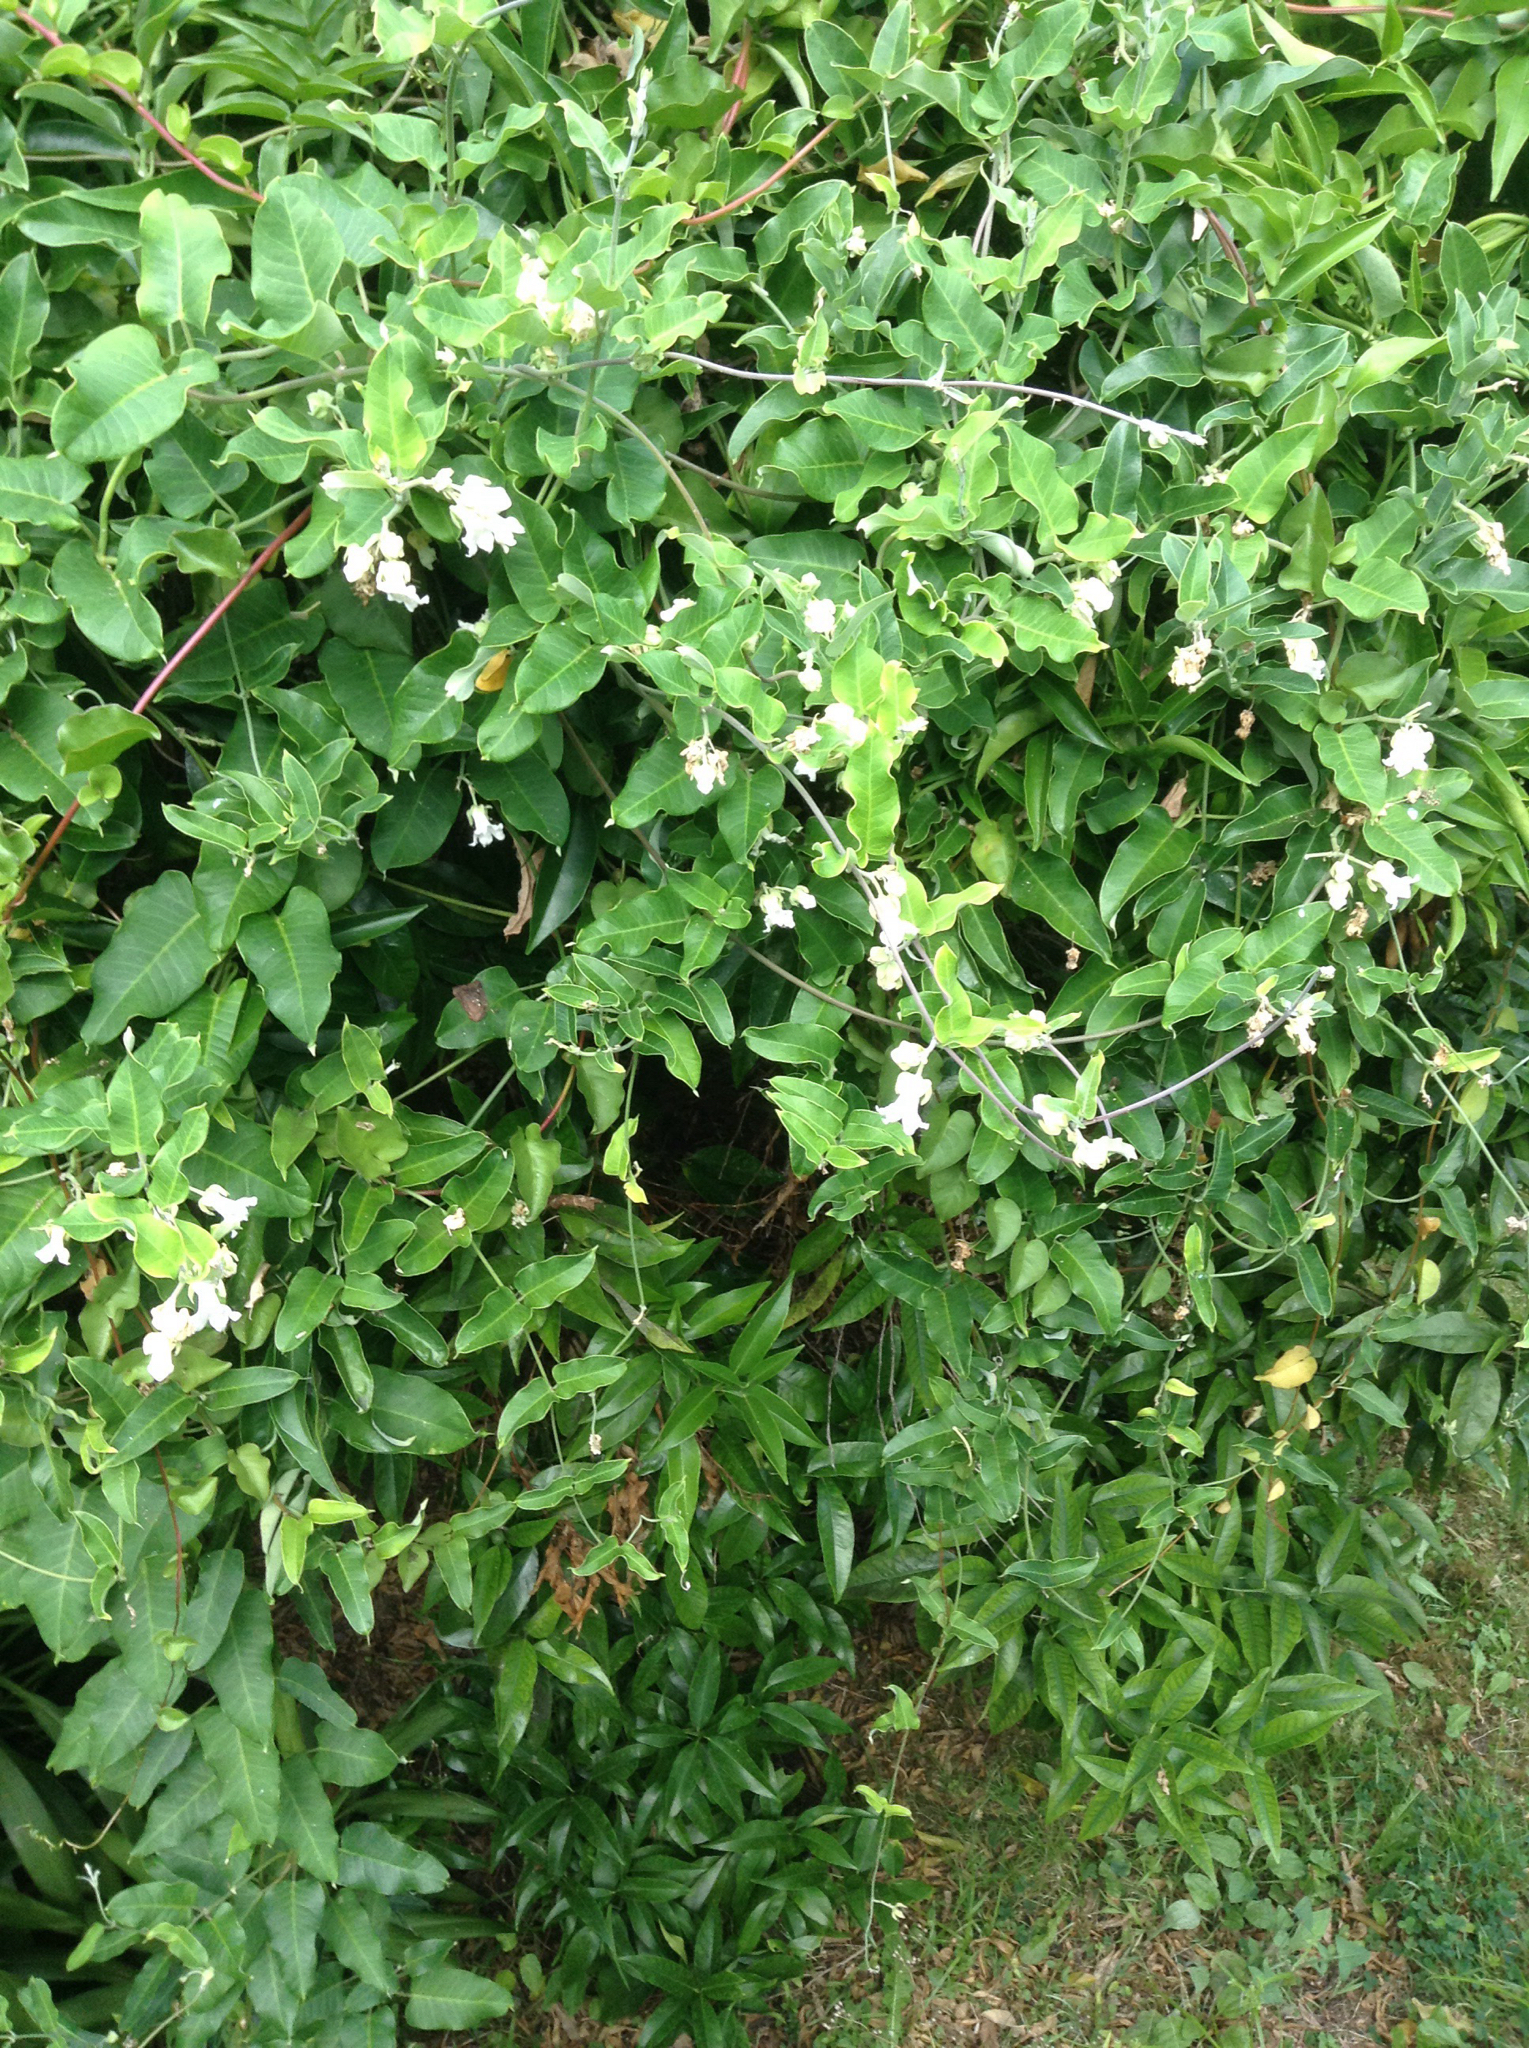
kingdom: Plantae
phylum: Tracheophyta
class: Magnoliopsida
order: Gentianales
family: Apocynaceae
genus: Araujia
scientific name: Araujia sericifera
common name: White bladderflower
